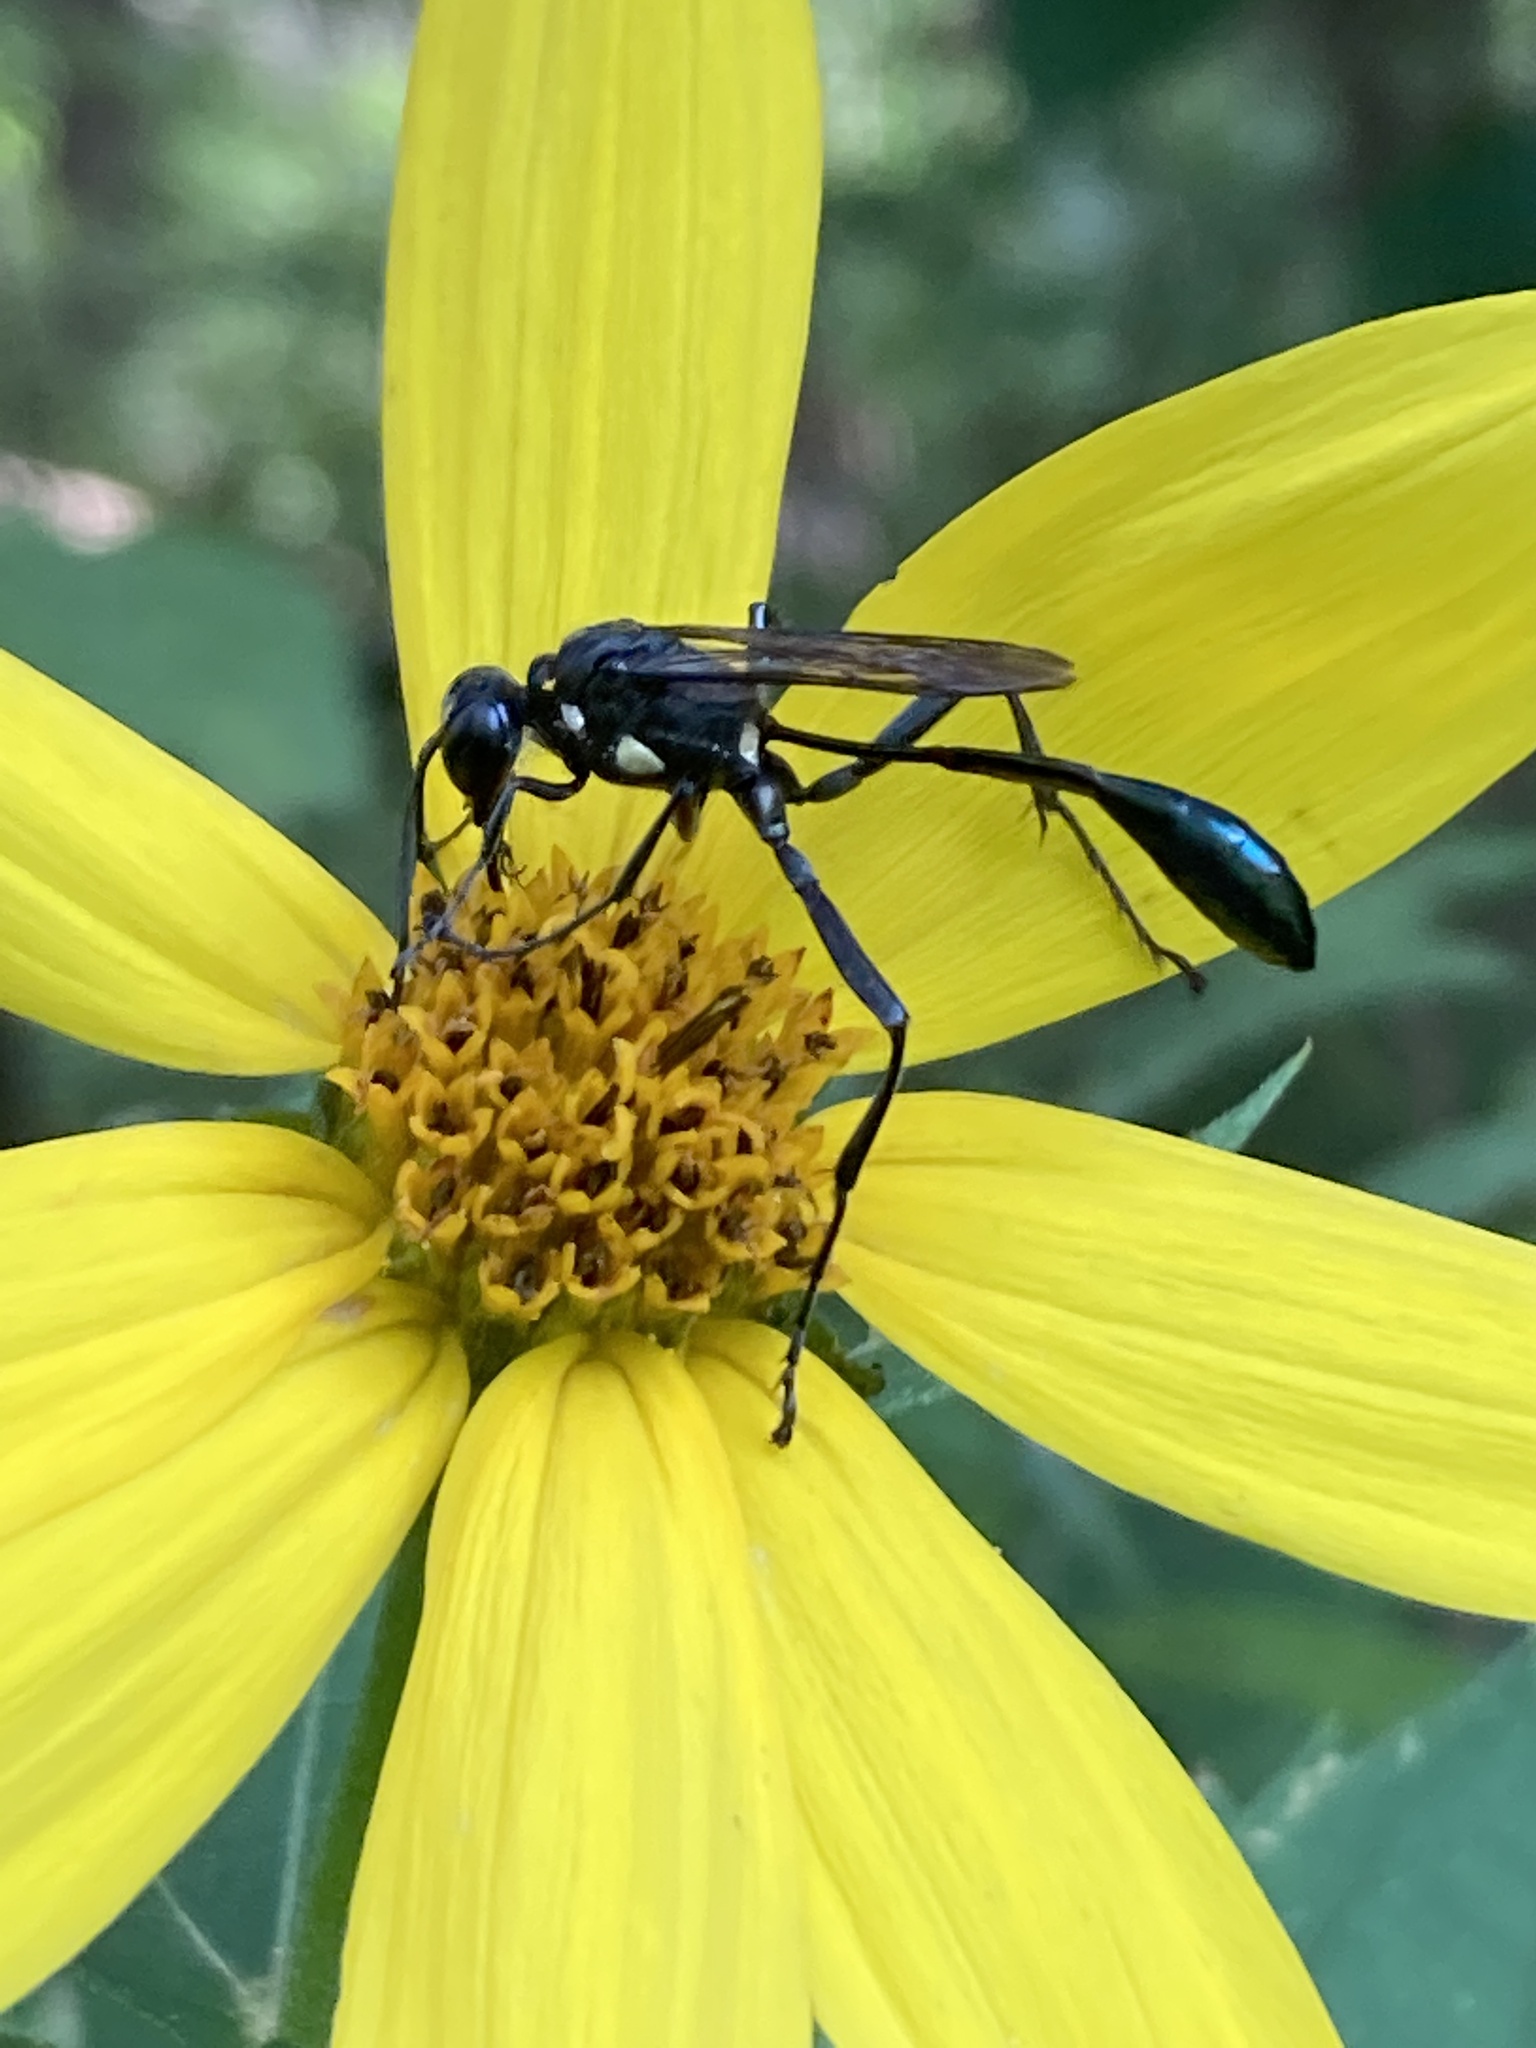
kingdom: Animalia
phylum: Arthropoda
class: Insecta
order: Hymenoptera
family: Sphecidae
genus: Eremnophila
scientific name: Eremnophila aureonotata
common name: Gold-marked thread-waisted wasp
